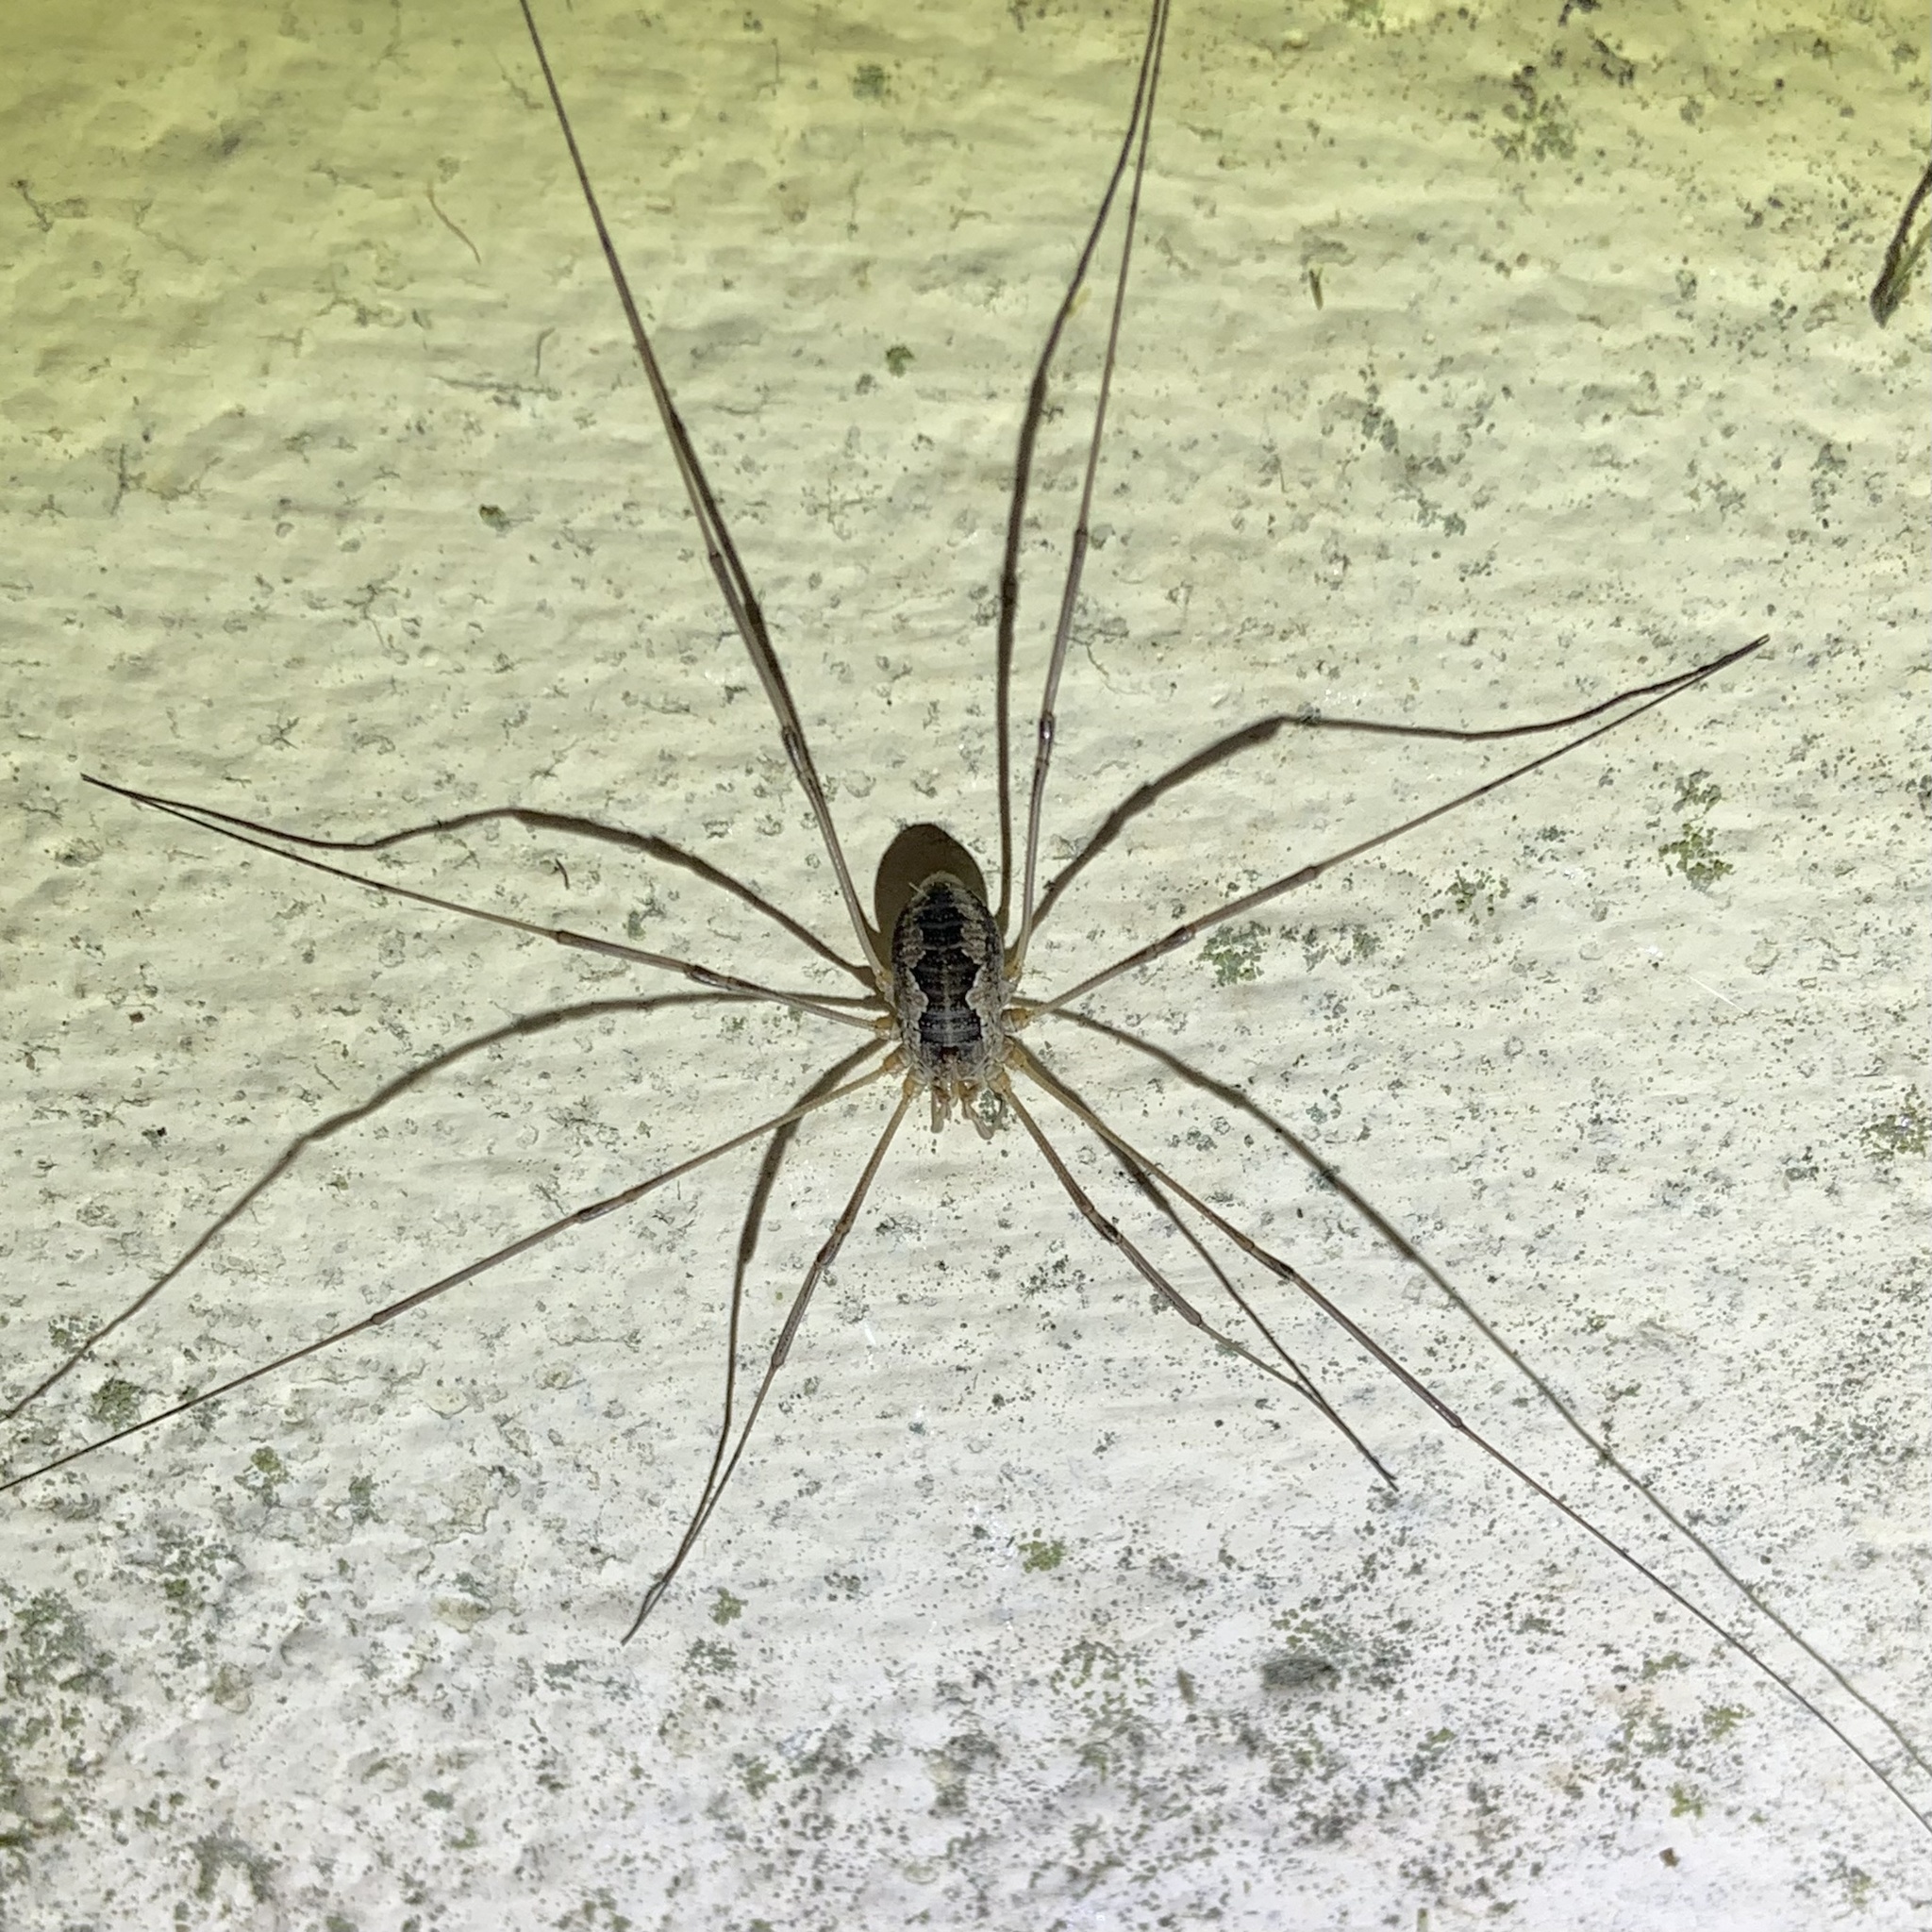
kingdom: Animalia
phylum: Arthropoda
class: Arachnida
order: Opiliones
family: Phalangiidae
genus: Phalangium
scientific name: Phalangium opilio
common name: Daddy longleg
